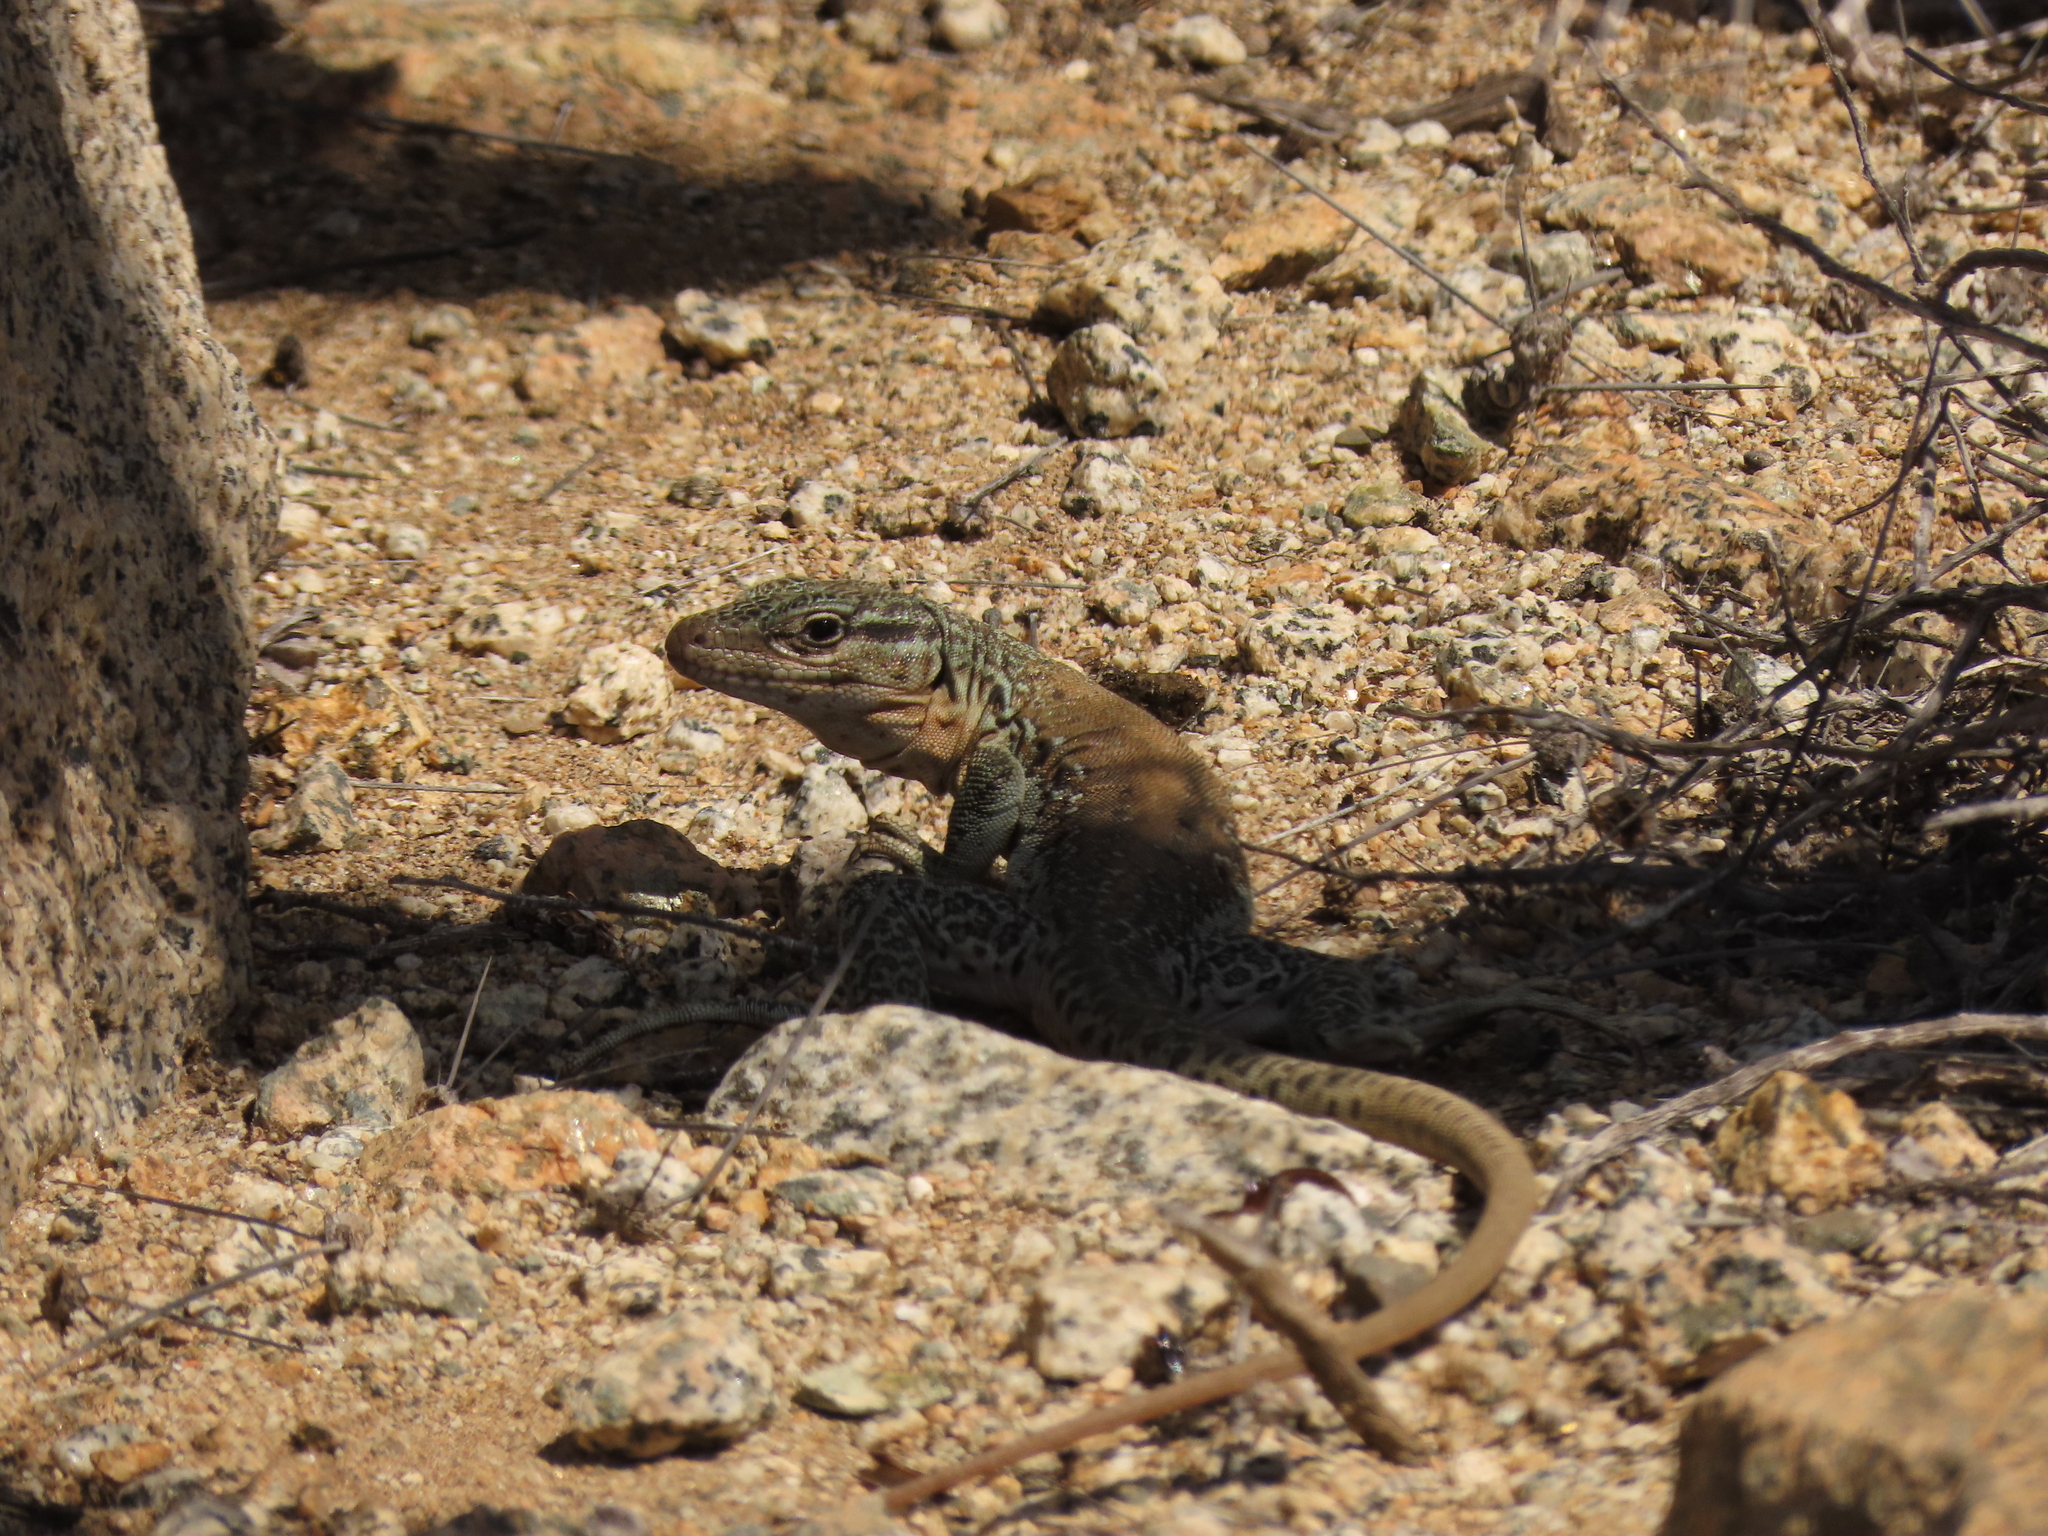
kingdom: Animalia
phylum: Chordata
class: Squamata
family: Teiidae
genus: Callopistes
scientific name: Callopistes maculatus
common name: Spotted false monitor
